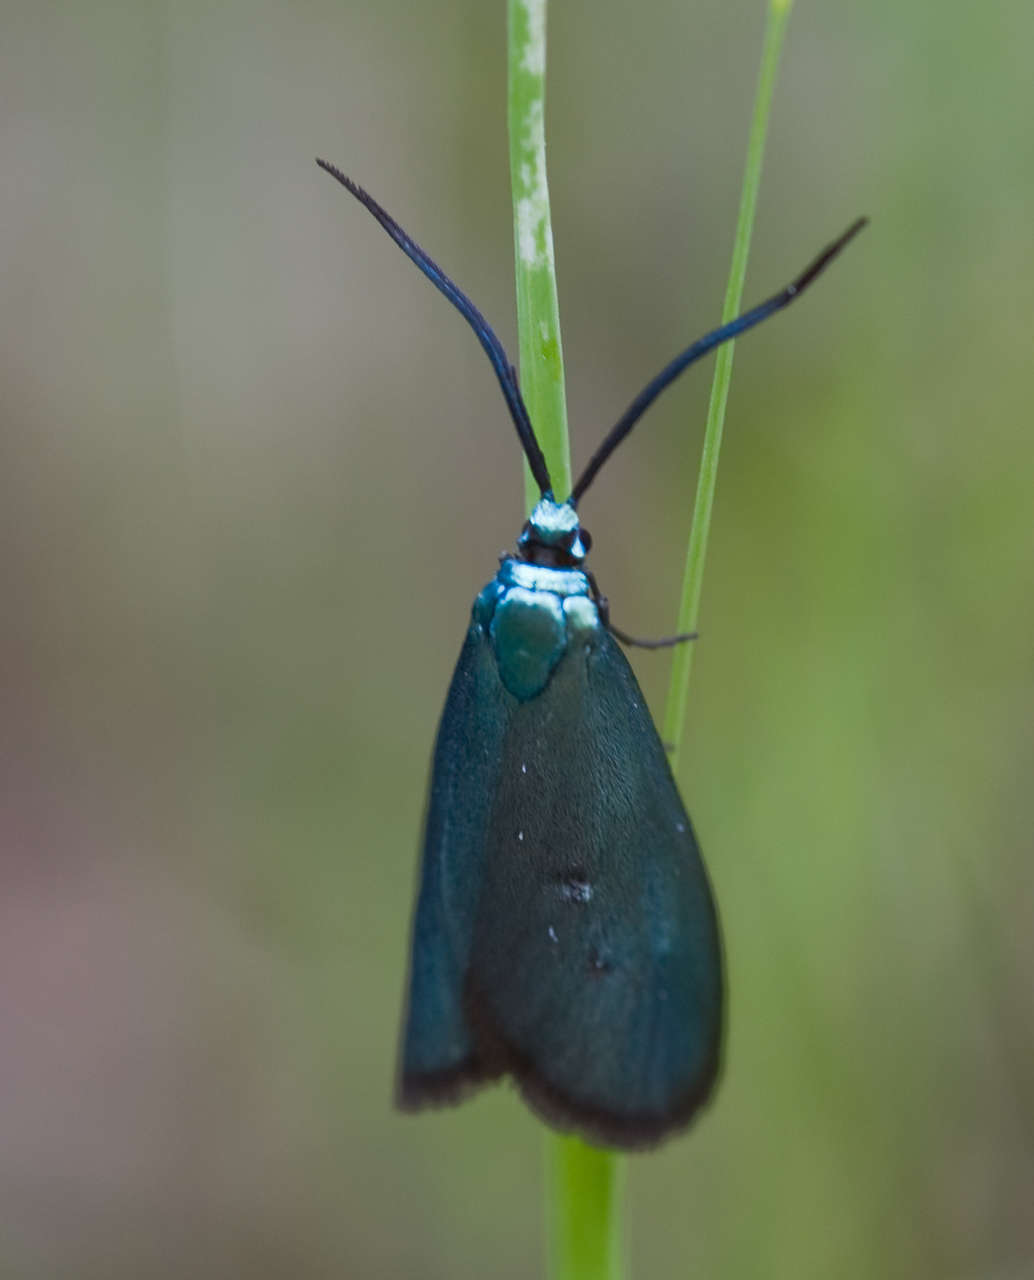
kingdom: Animalia
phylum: Arthropoda
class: Insecta
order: Lepidoptera
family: Zygaenidae
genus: Pollanisus
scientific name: Pollanisus viridipulverulenta
